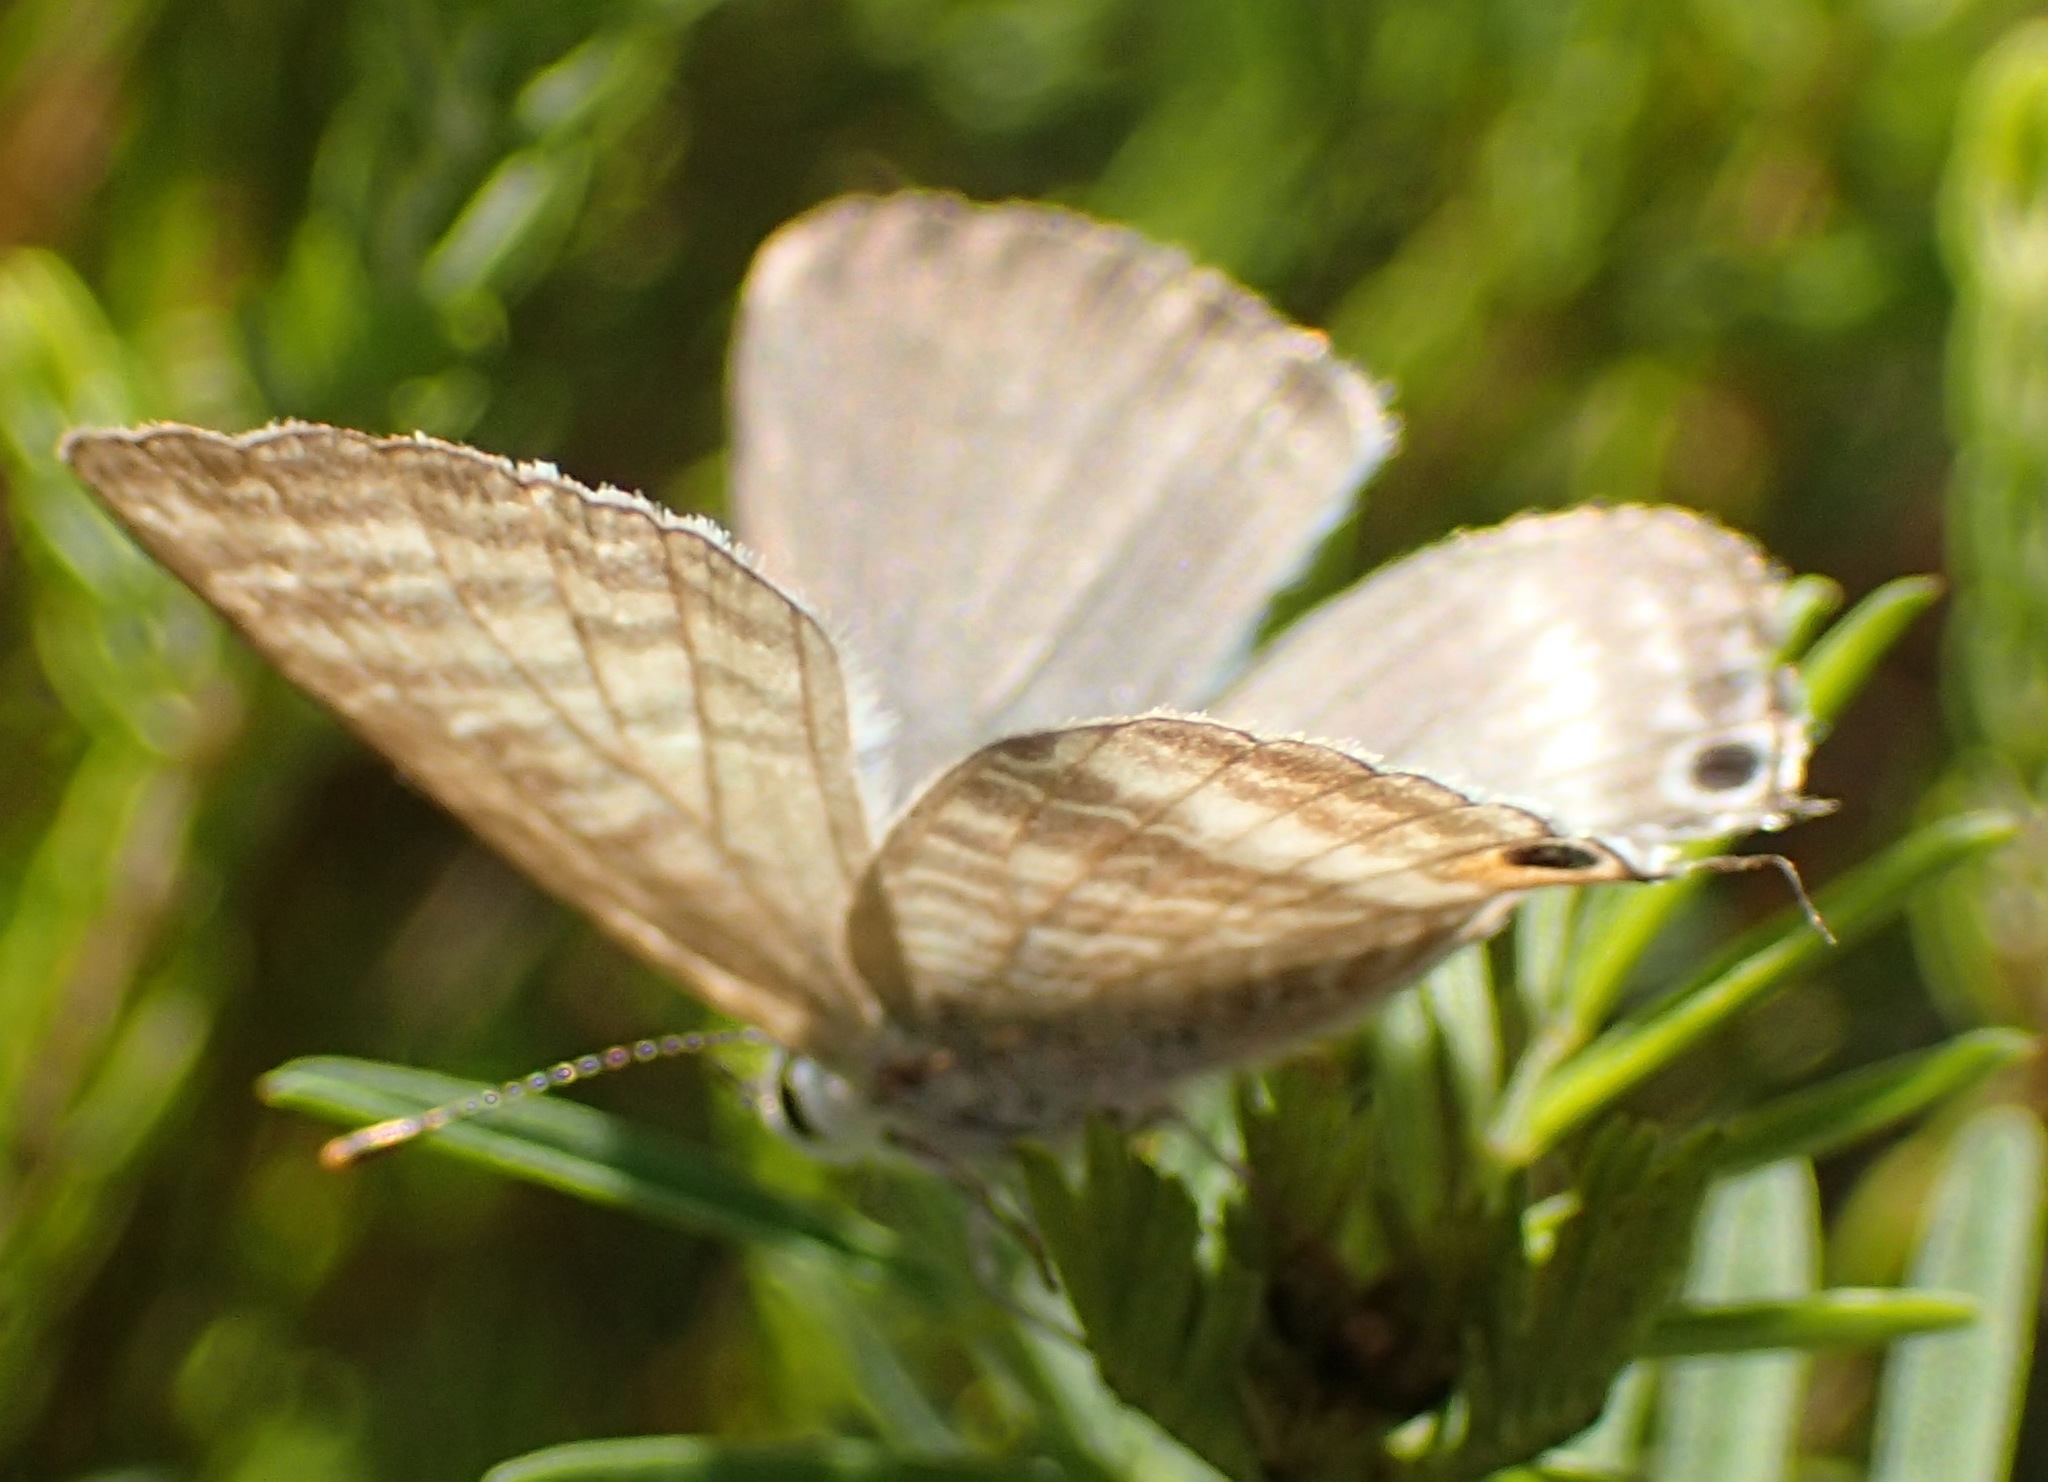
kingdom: Animalia
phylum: Arthropoda
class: Insecta
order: Lepidoptera
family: Lycaenidae
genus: Lampides
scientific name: Lampides boeticus
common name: Long-tailed blue
